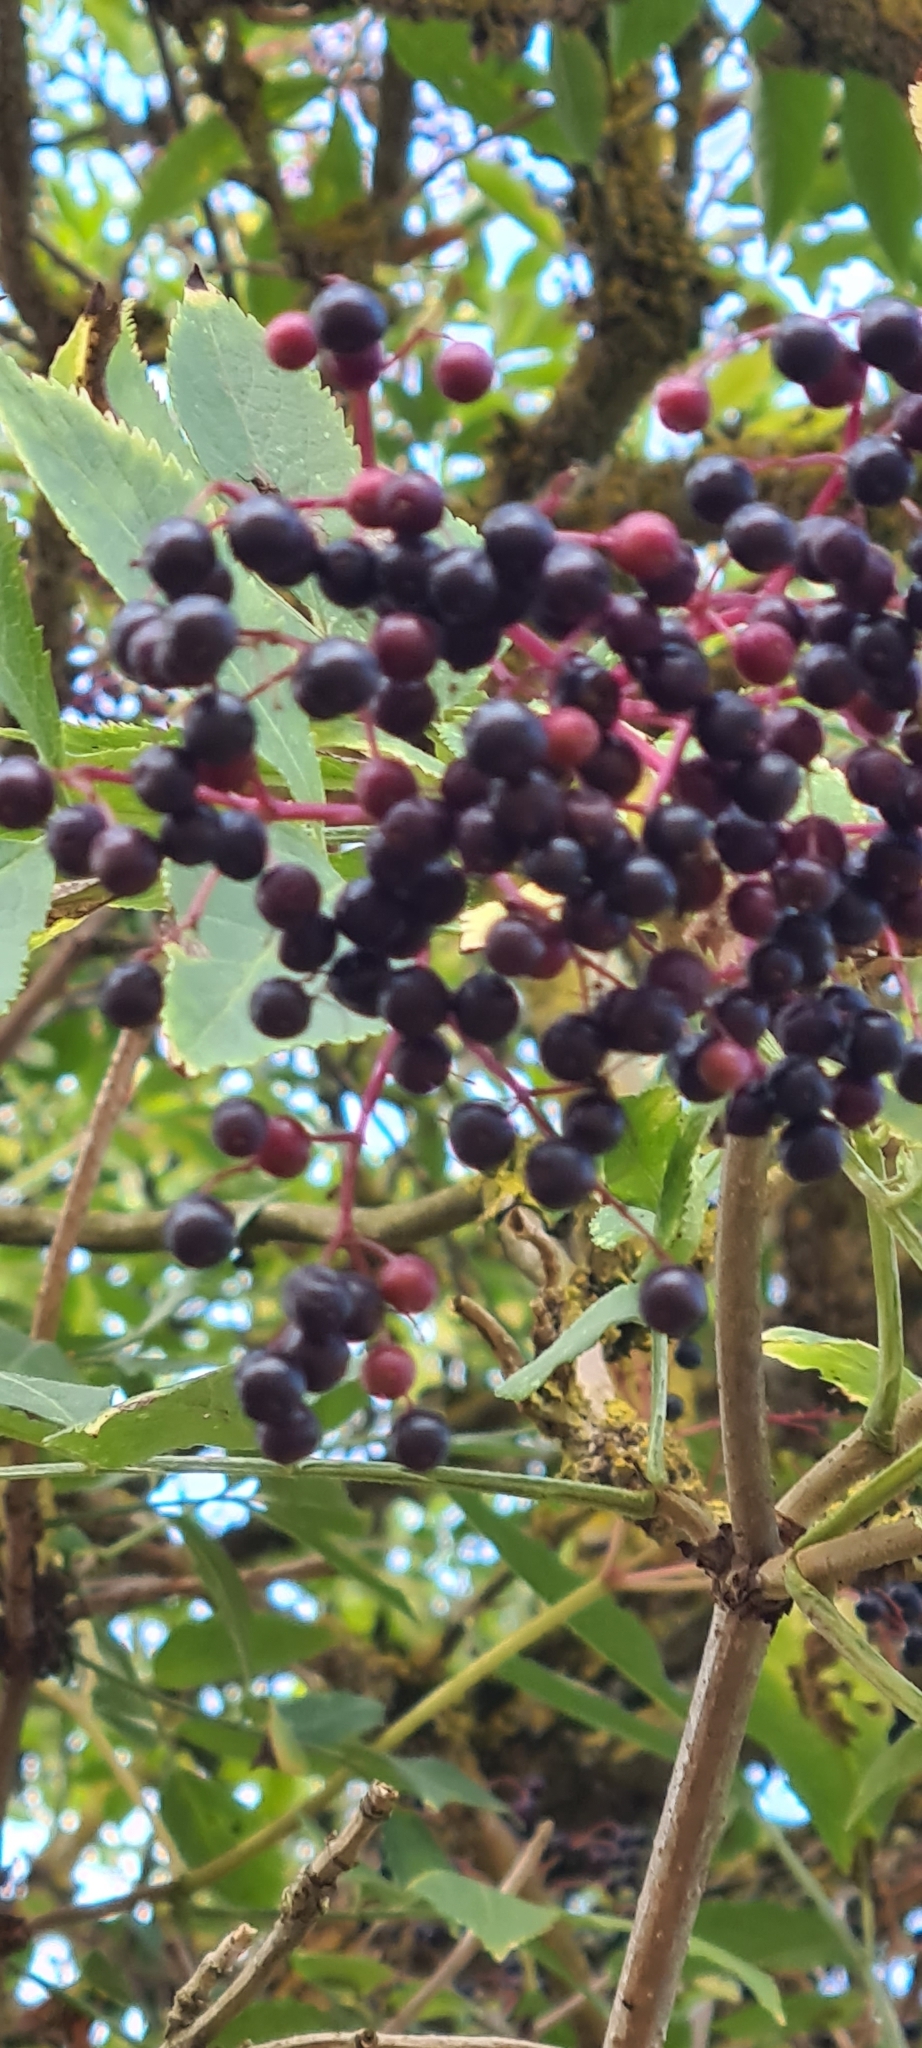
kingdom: Plantae
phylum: Tracheophyta
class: Magnoliopsida
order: Dipsacales
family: Viburnaceae
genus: Sambucus
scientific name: Sambucus nigra
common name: Elder
